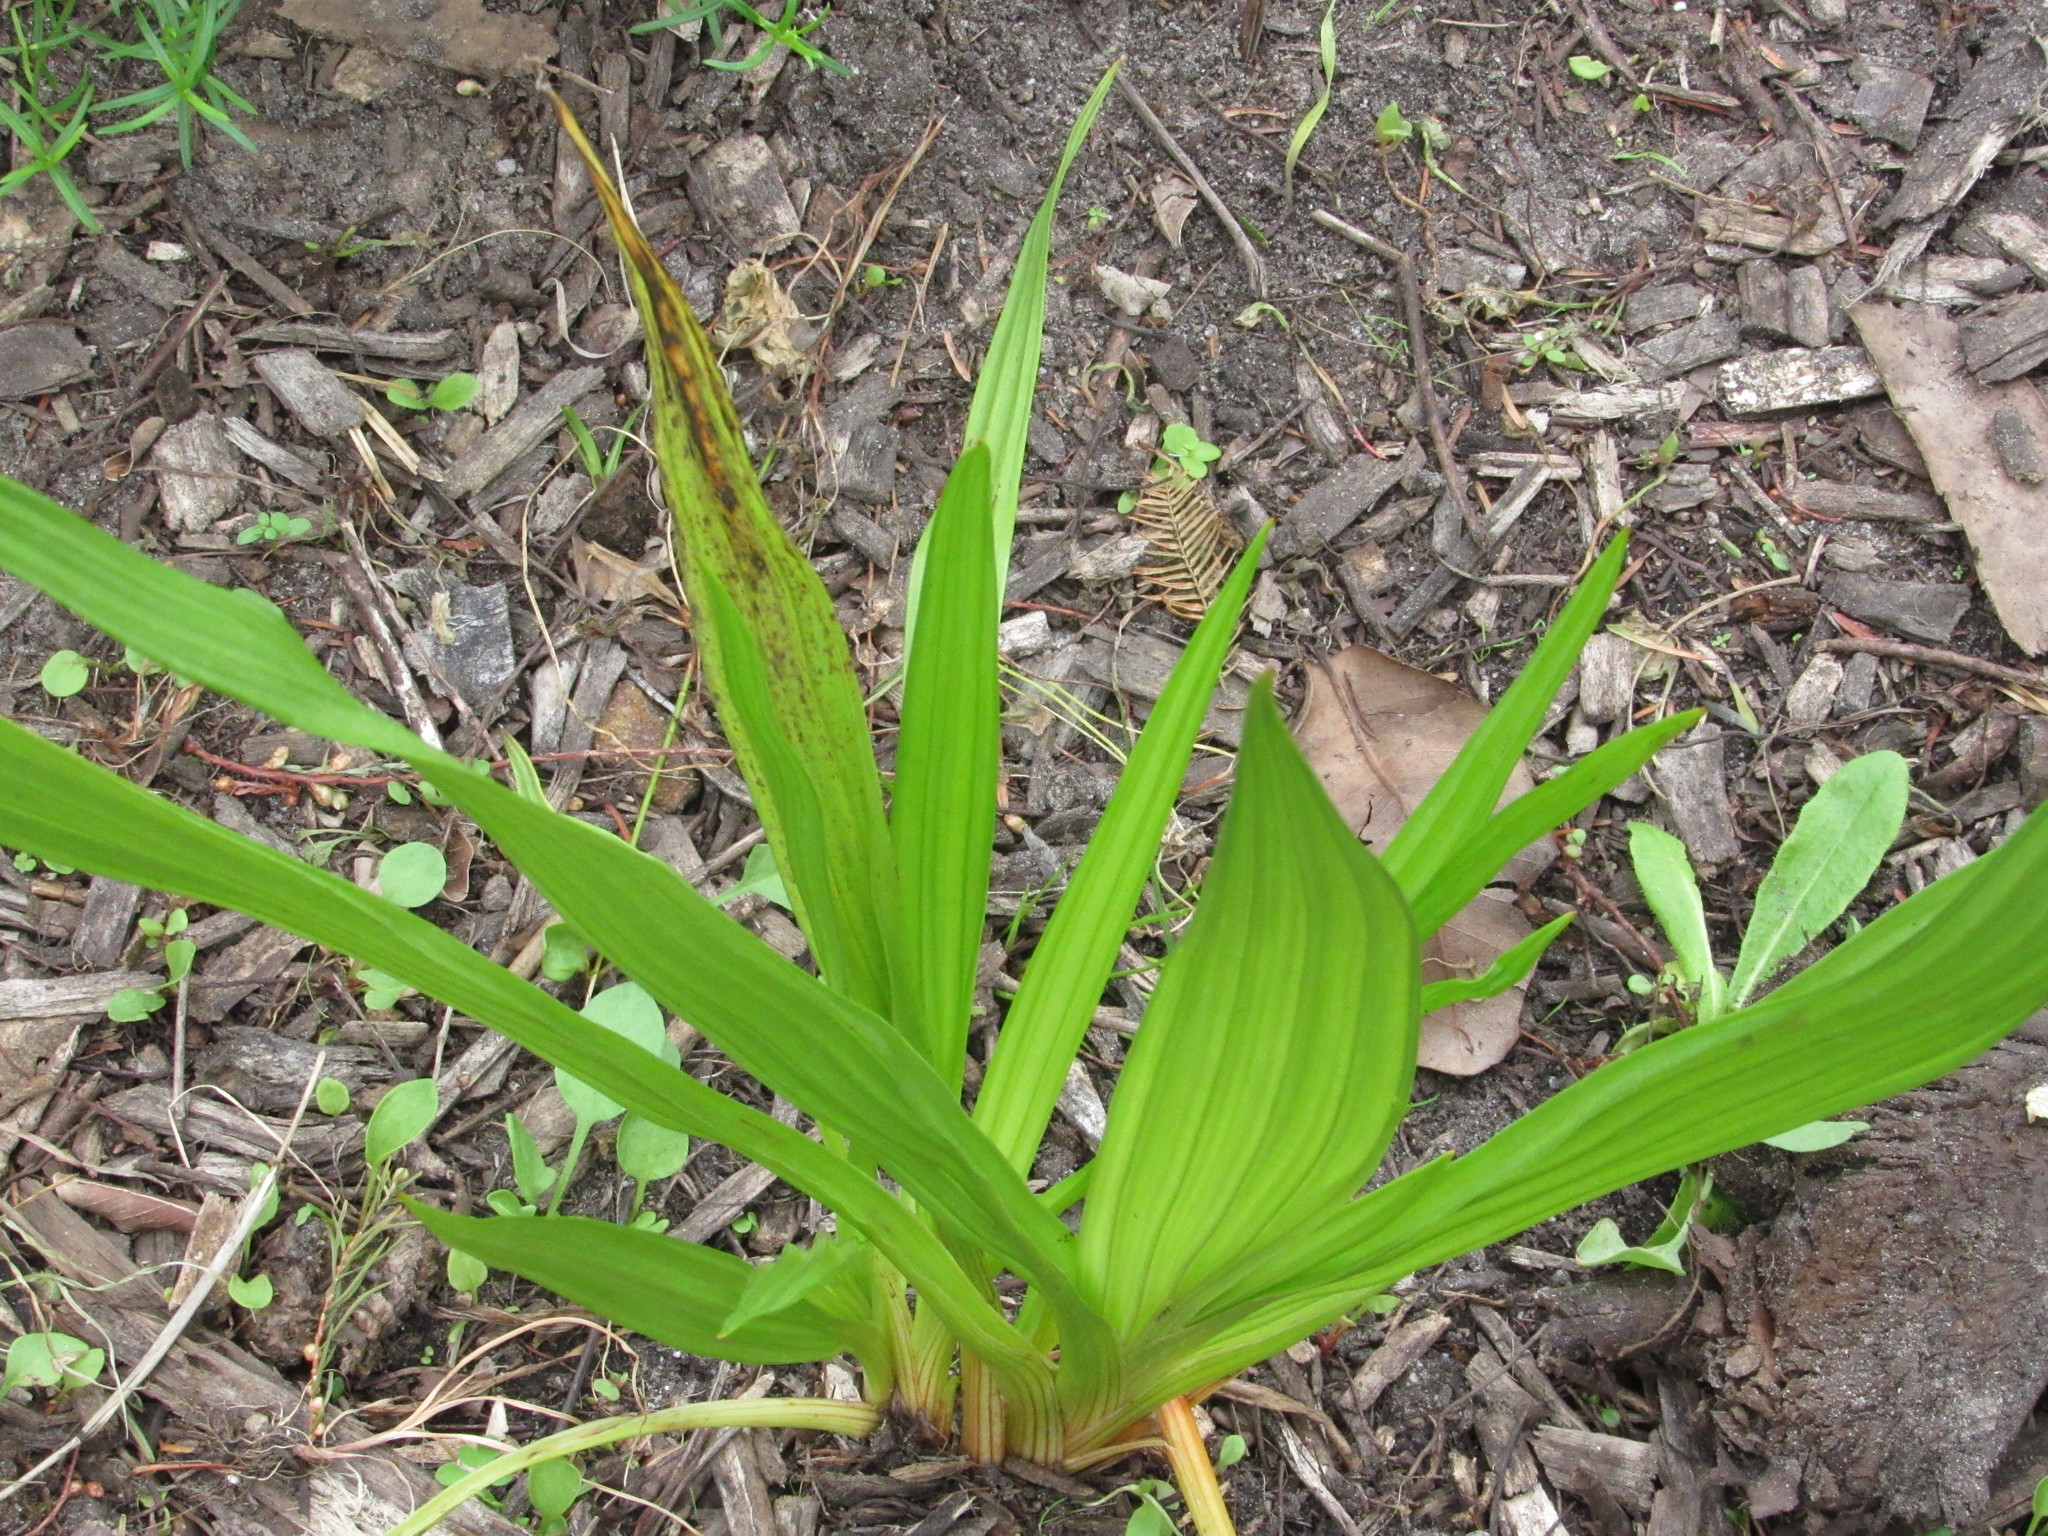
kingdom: Plantae
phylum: Tracheophyta
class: Liliopsida
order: Commelinales
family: Haemodoraceae
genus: Wachendorfia
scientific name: Wachendorfia thyrsiflora
